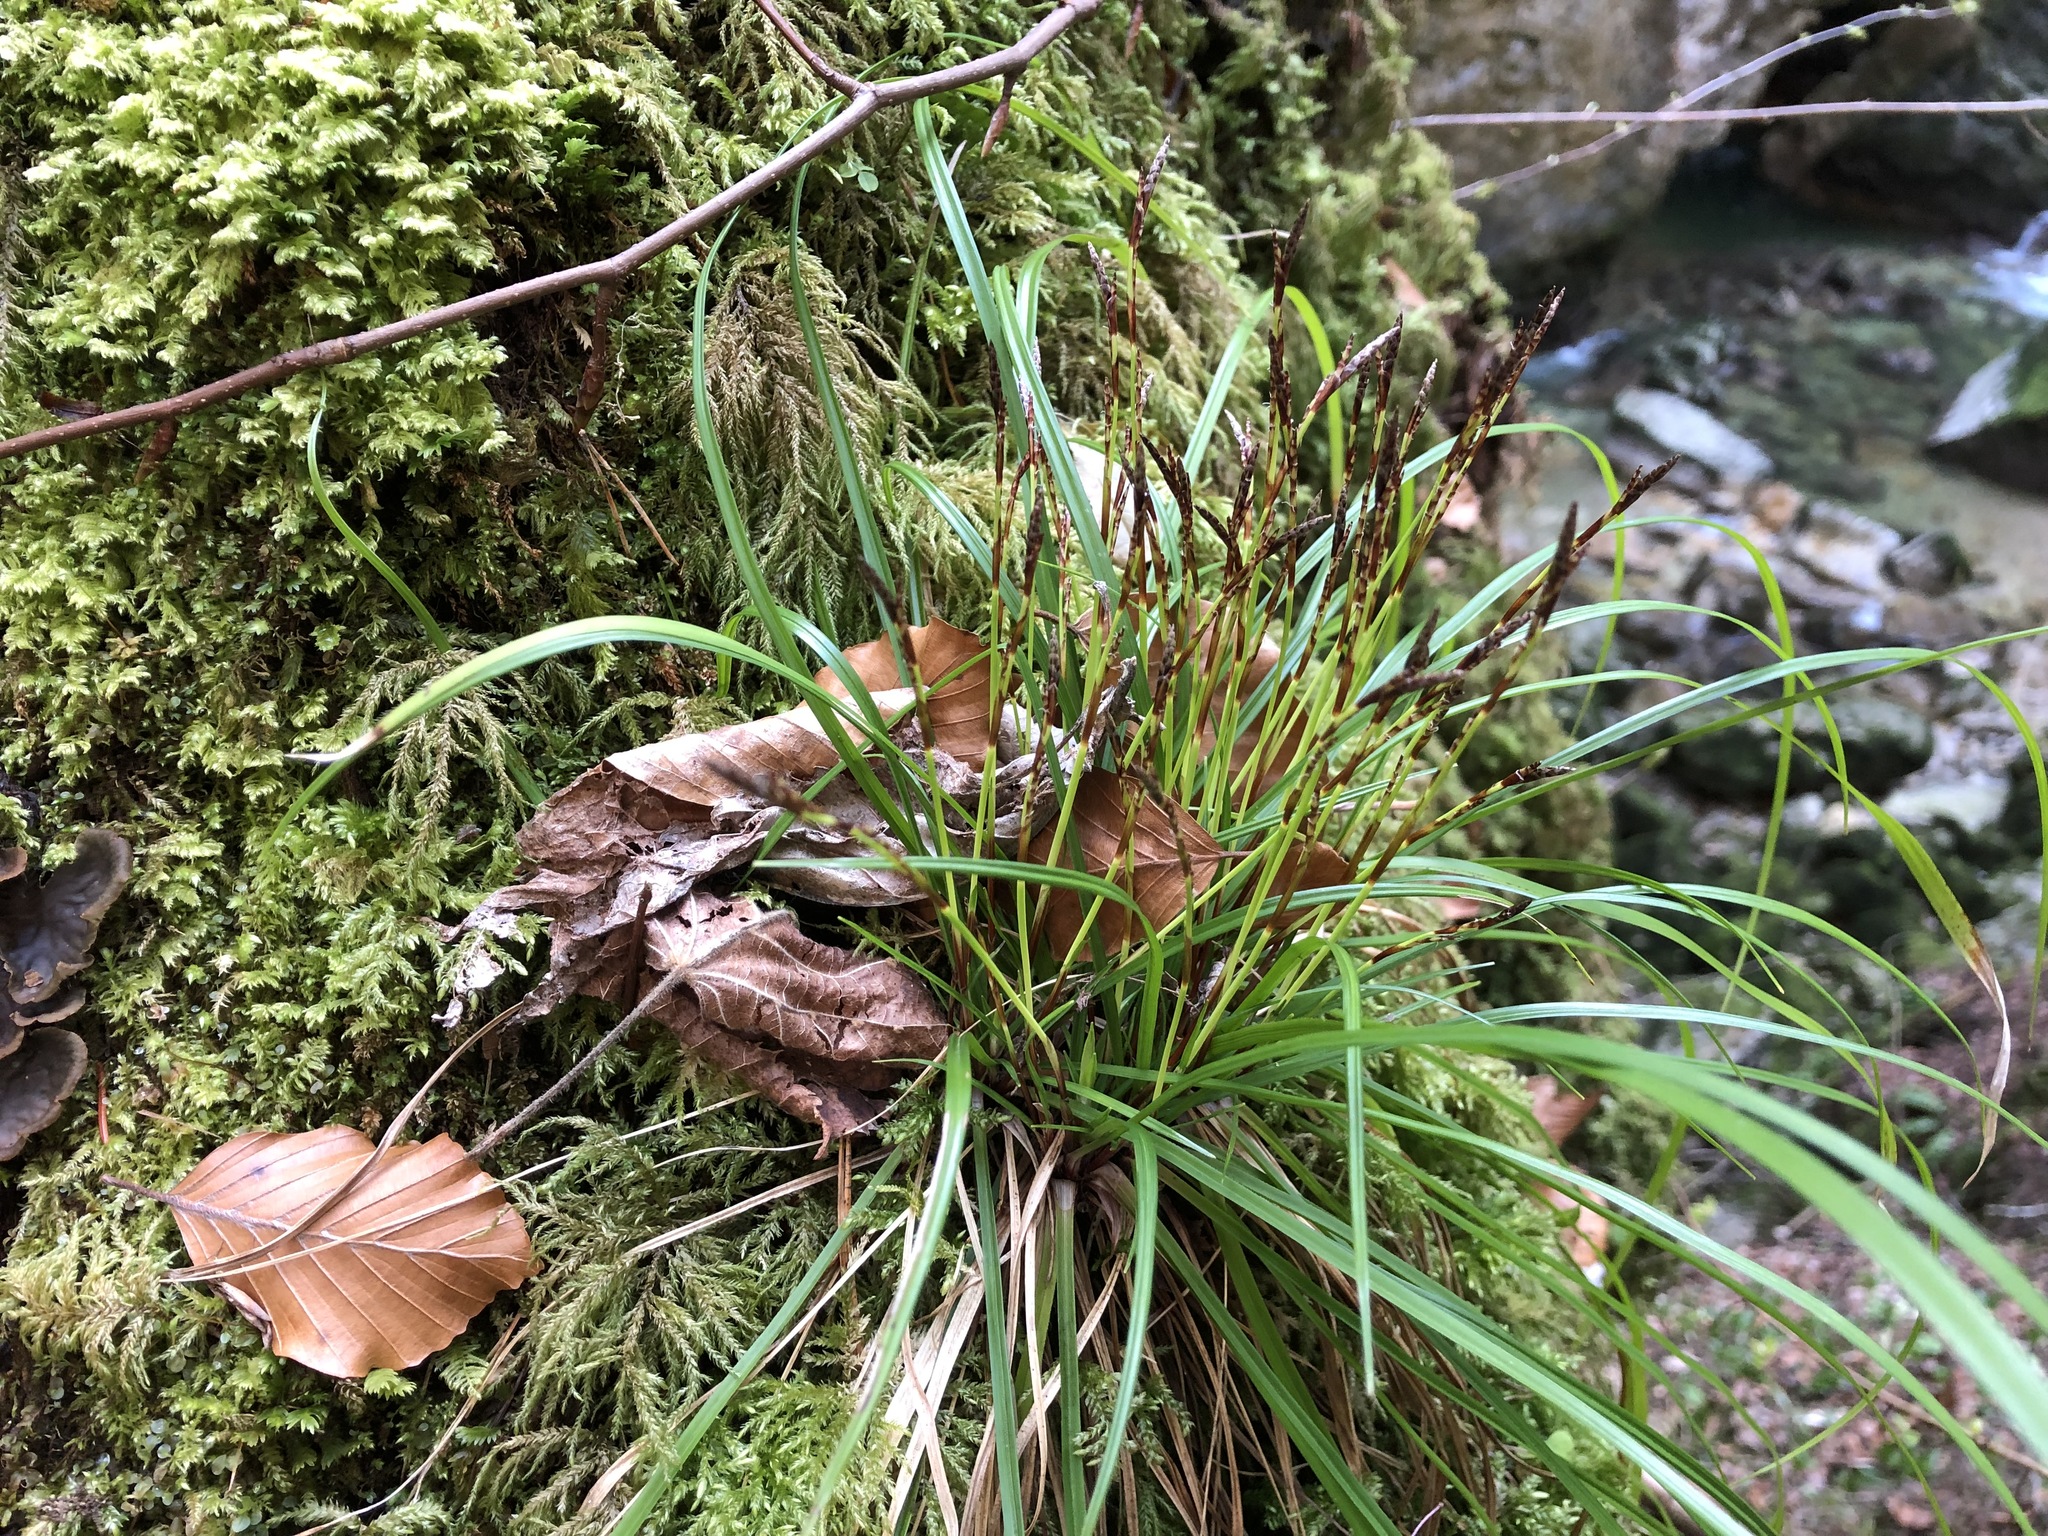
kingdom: Plantae
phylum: Tracheophyta
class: Liliopsida
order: Poales
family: Cyperaceae
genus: Carex
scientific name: Carex digitata
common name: Fingered sedge
